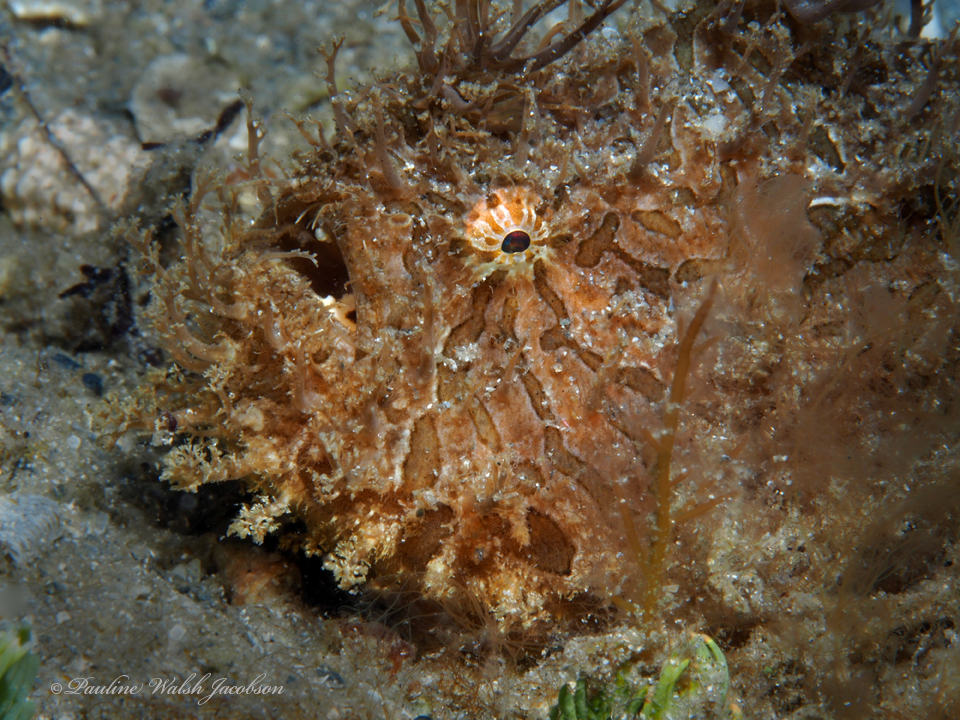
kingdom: Animalia
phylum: Chordata
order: Lophiiformes
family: Antennariidae
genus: Antennarius
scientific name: Antennarius striatus
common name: Striated frogfish
